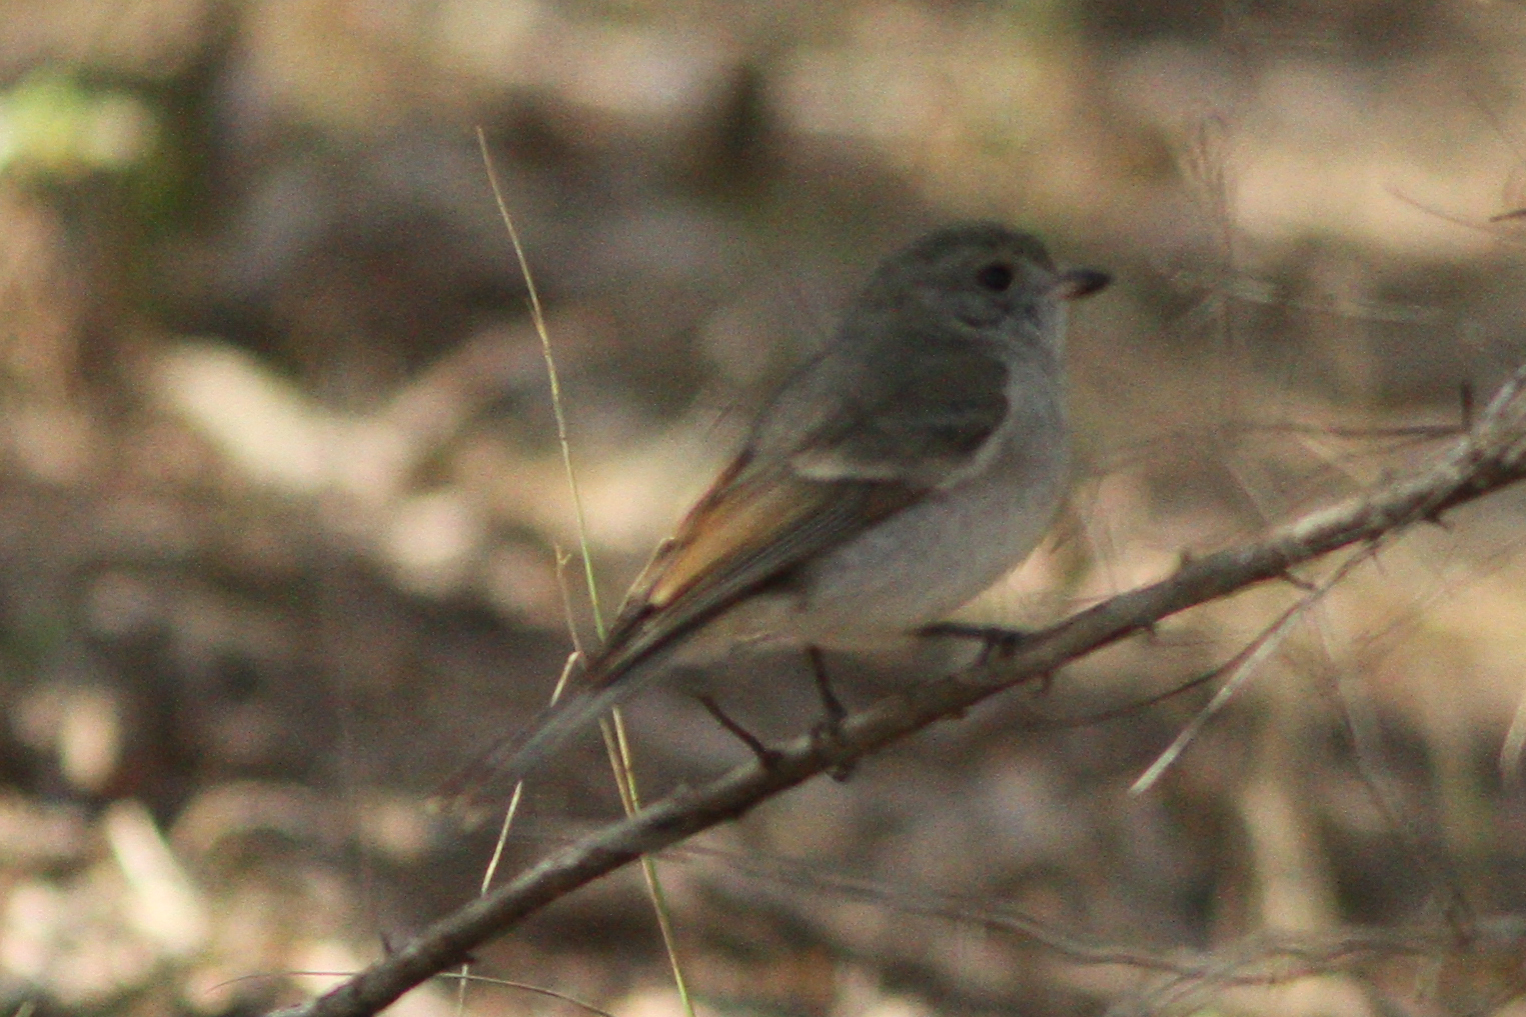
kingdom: Animalia
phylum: Chordata
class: Aves
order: Passeriformes
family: Pachycephalidae
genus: Pachycephala
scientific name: Pachycephala pectoralis
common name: Australian golden whistler
